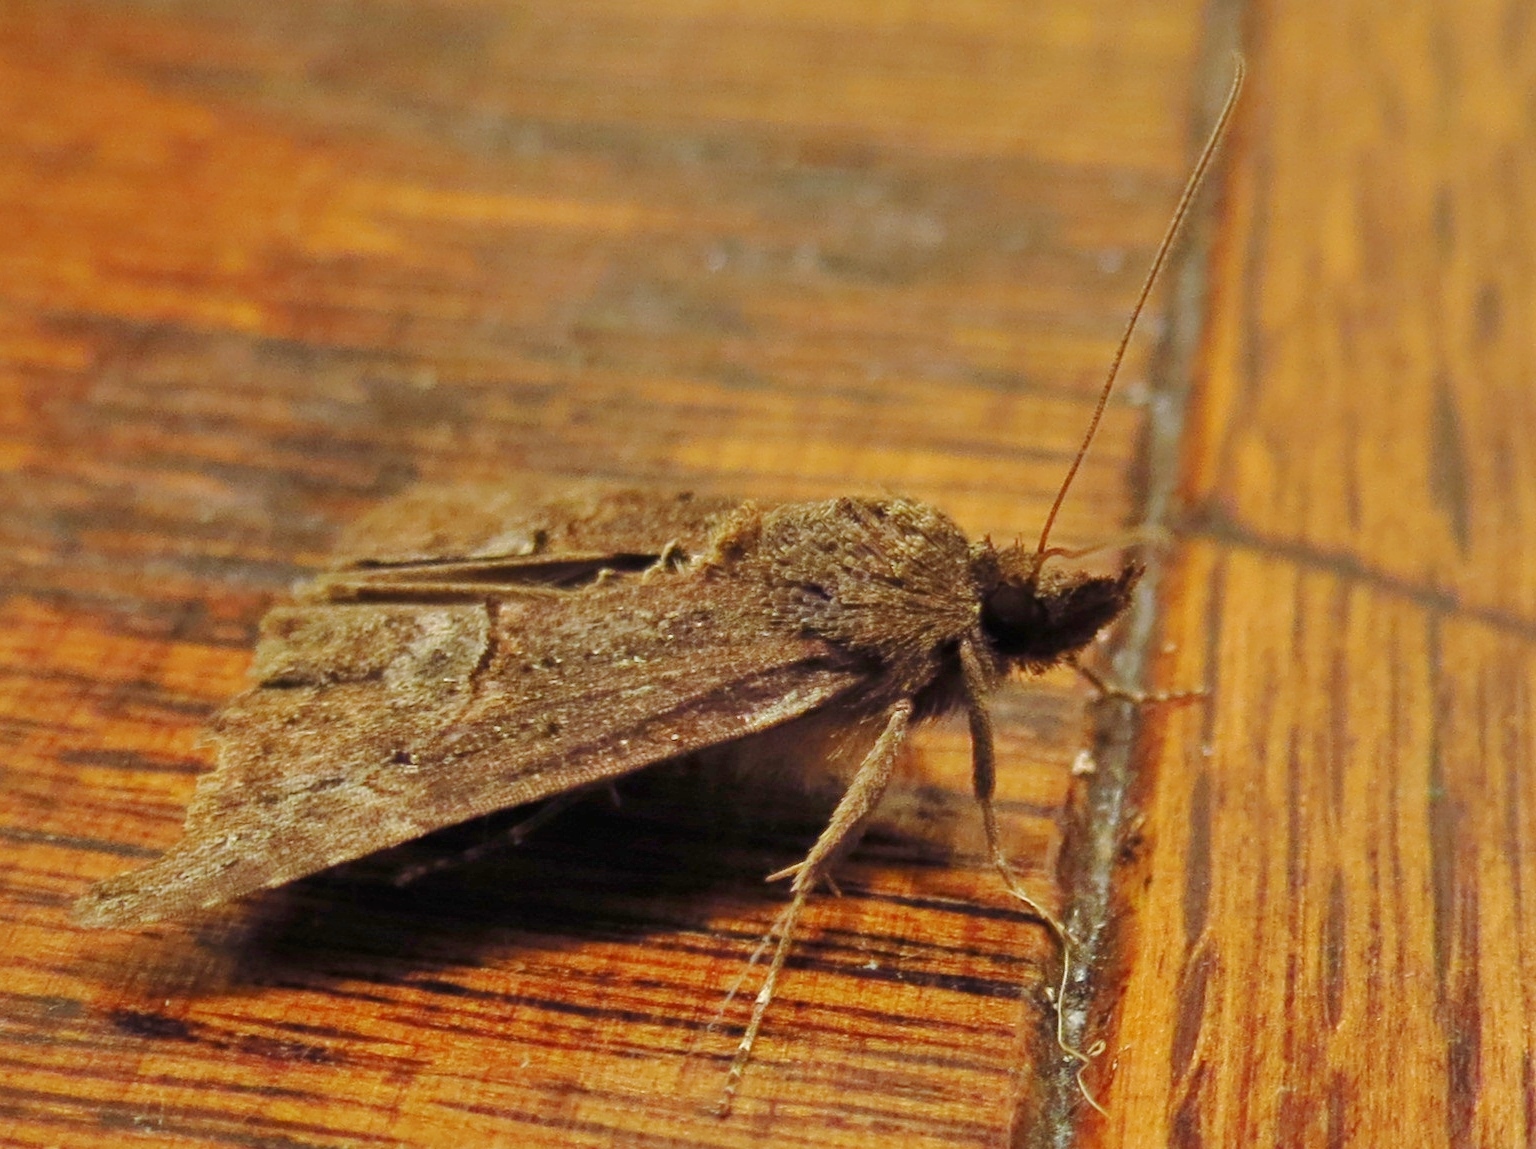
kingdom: Animalia
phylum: Arthropoda
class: Insecta
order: Lepidoptera
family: Erebidae
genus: Hypena
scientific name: Hypena scabra
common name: Green cloverworm
